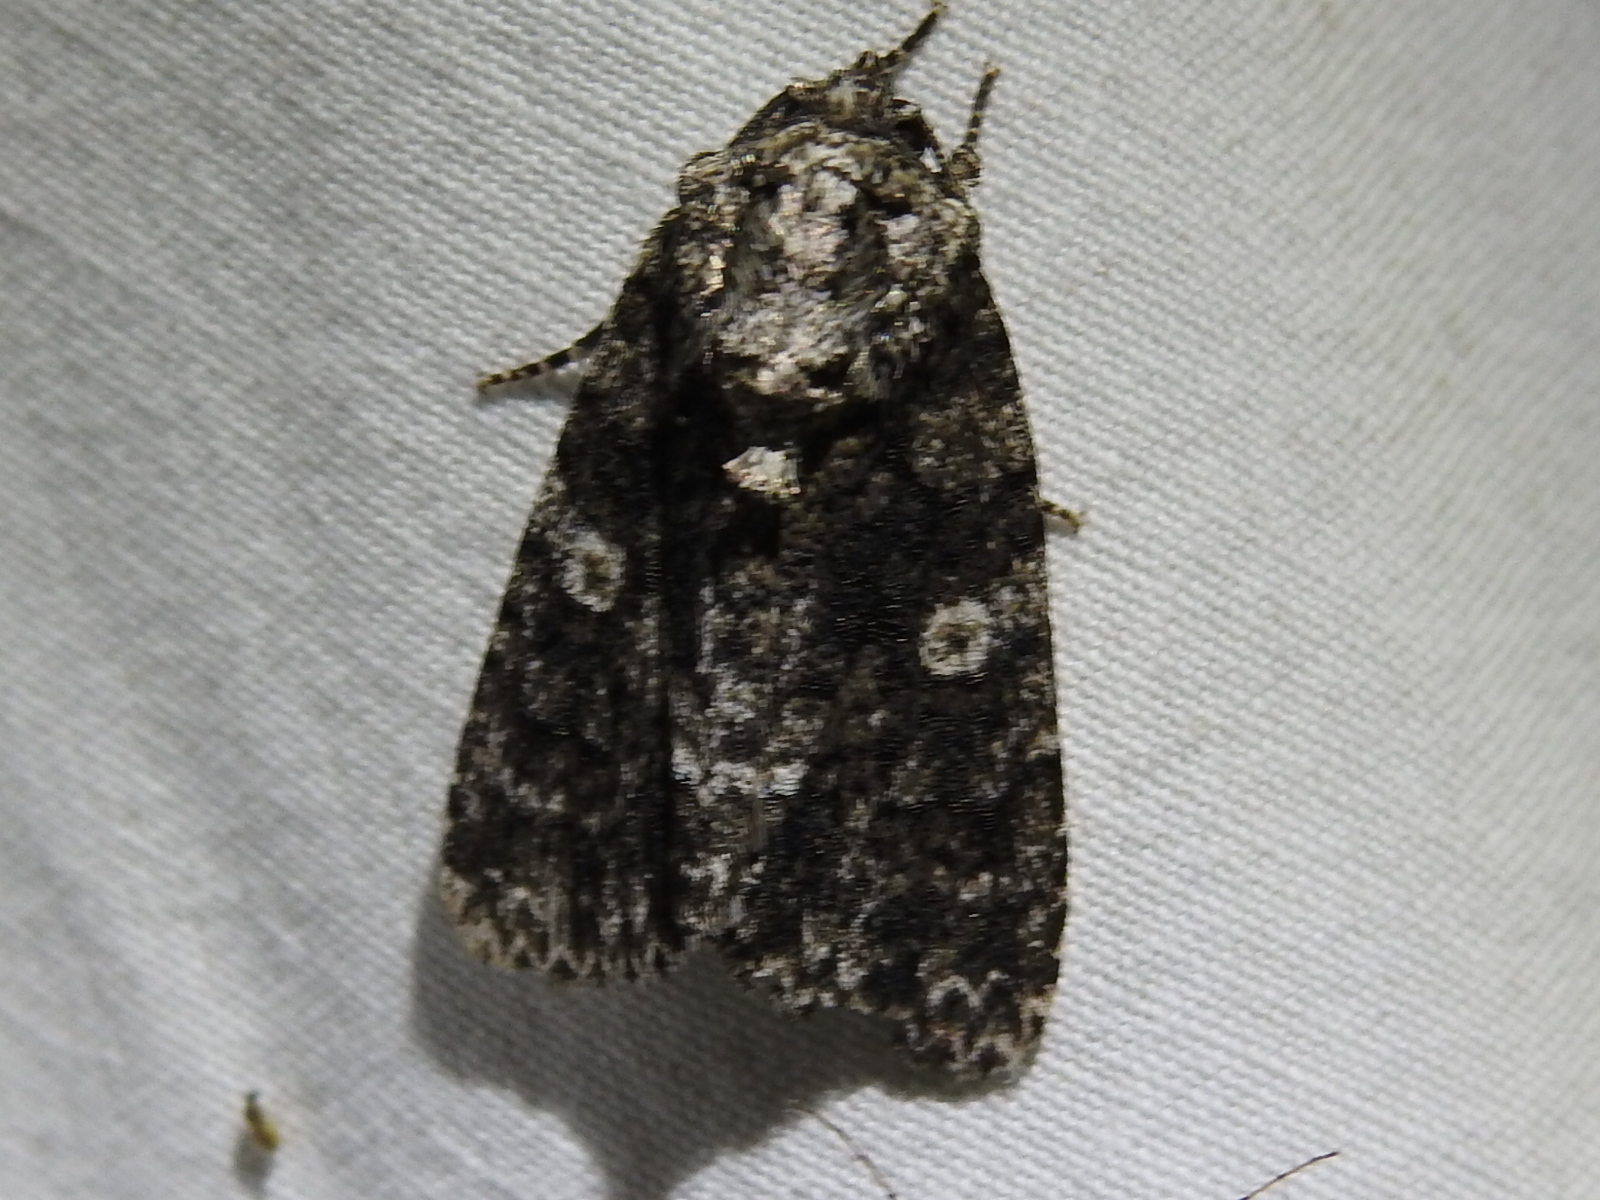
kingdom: Animalia
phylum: Arthropoda
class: Insecta
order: Lepidoptera
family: Noctuidae
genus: Acronicta
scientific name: Acronicta afflicta
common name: Afflicted dagger moth
